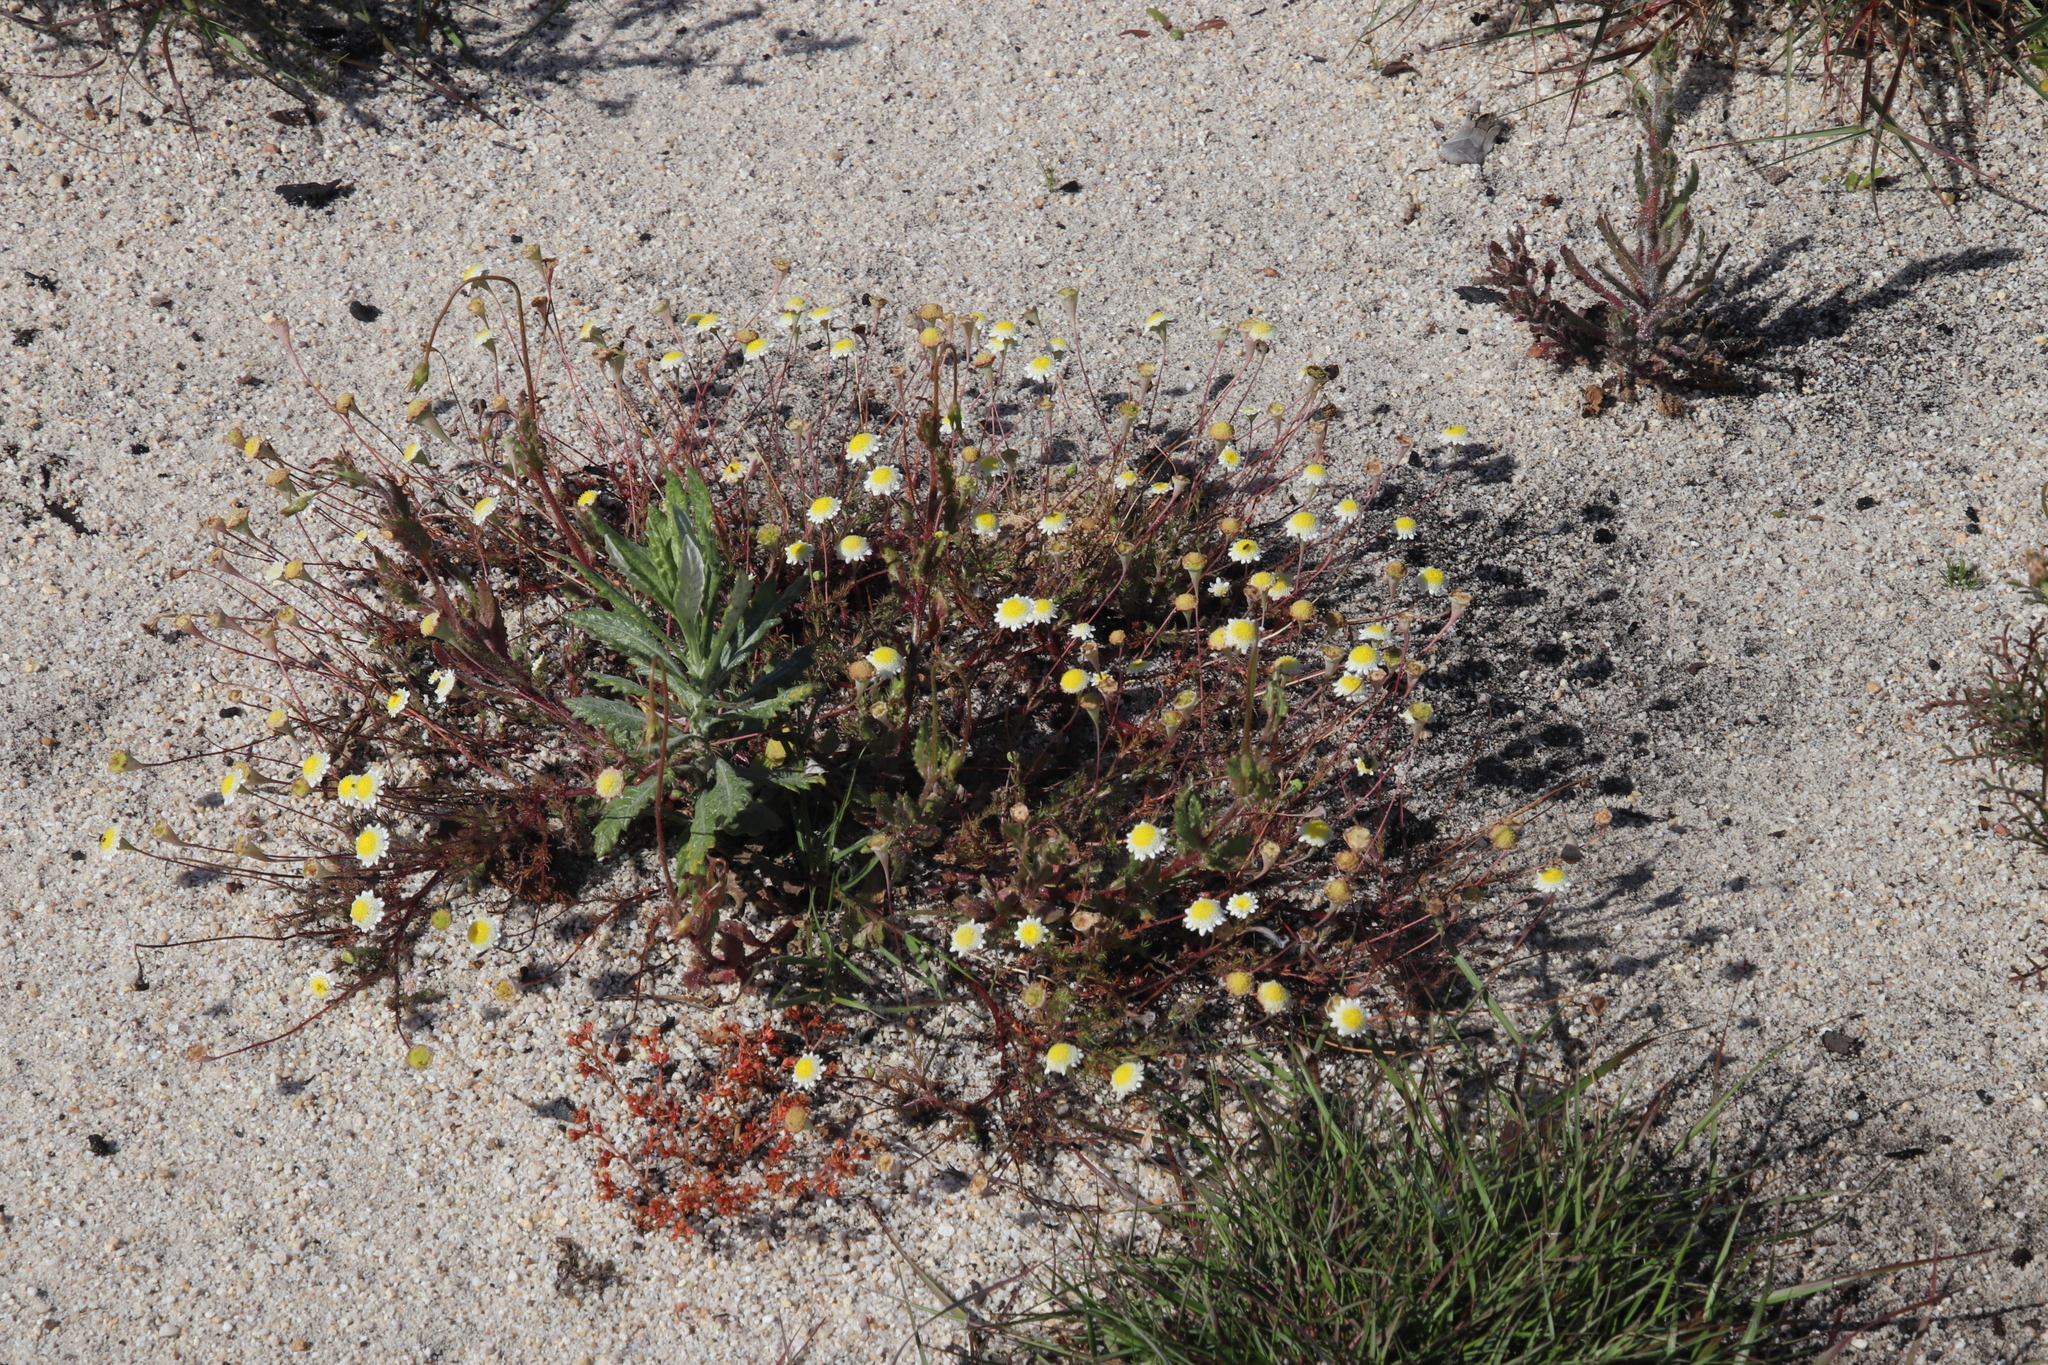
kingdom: Plantae
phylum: Tracheophyta
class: Magnoliopsida
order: Asterales
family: Asteraceae
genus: Cotula
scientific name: Cotula turbinata
